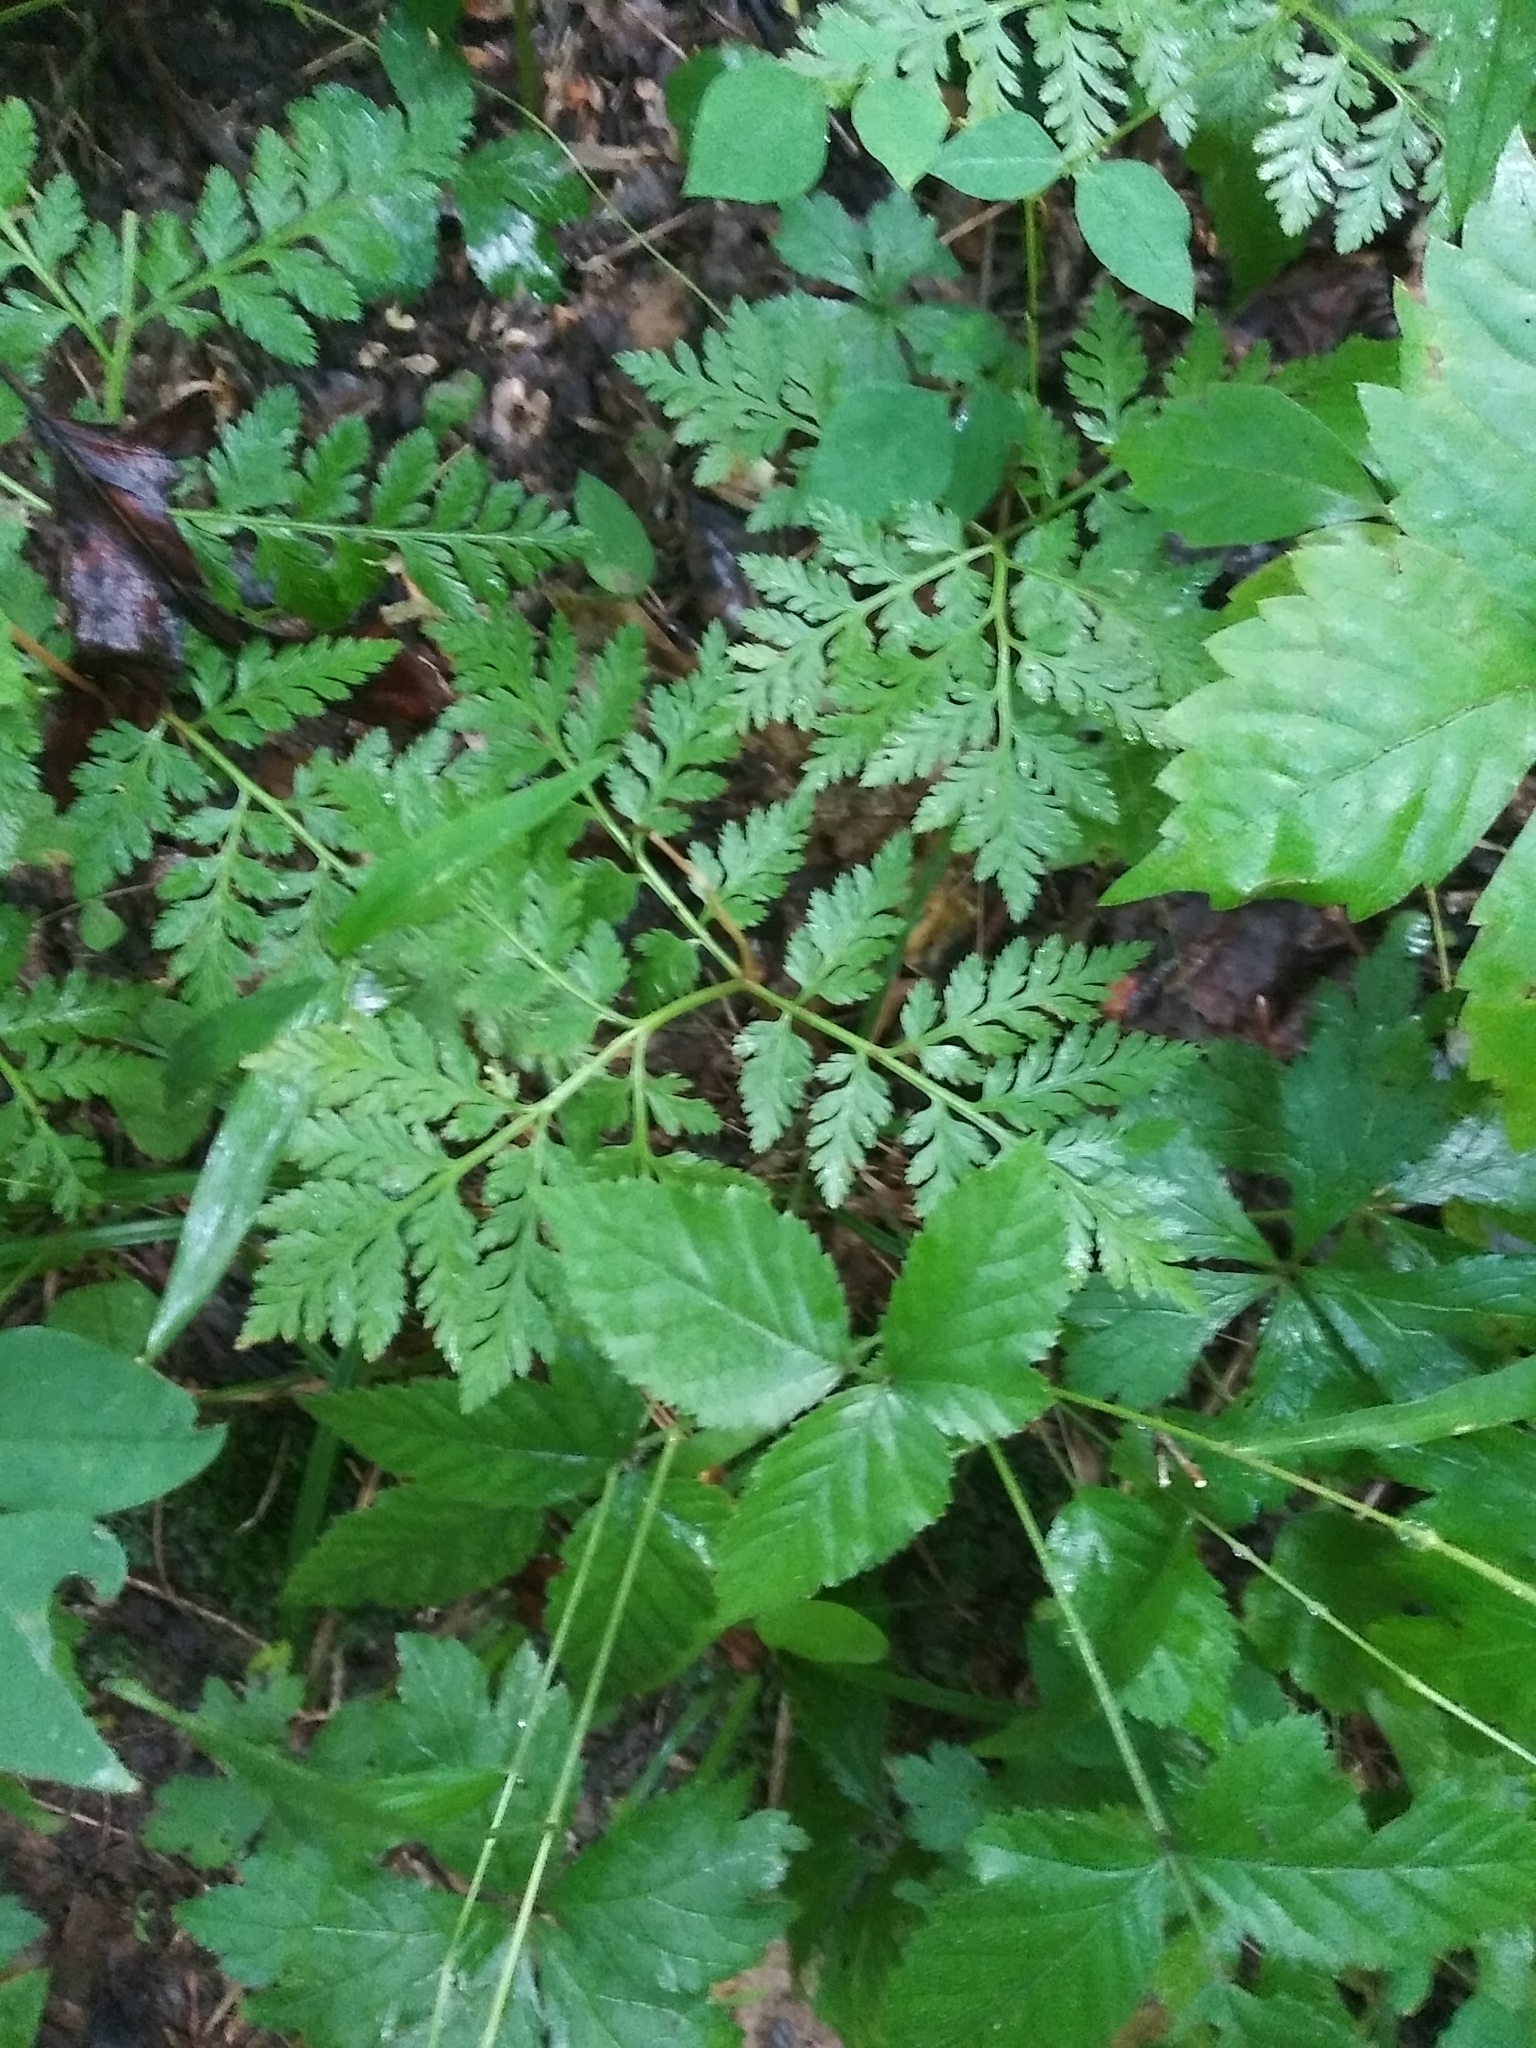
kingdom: Plantae
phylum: Tracheophyta
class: Polypodiopsida
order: Ophioglossales
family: Ophioglossaceae
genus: Botrypus
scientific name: Botrypus virginianus
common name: Common grapefern
